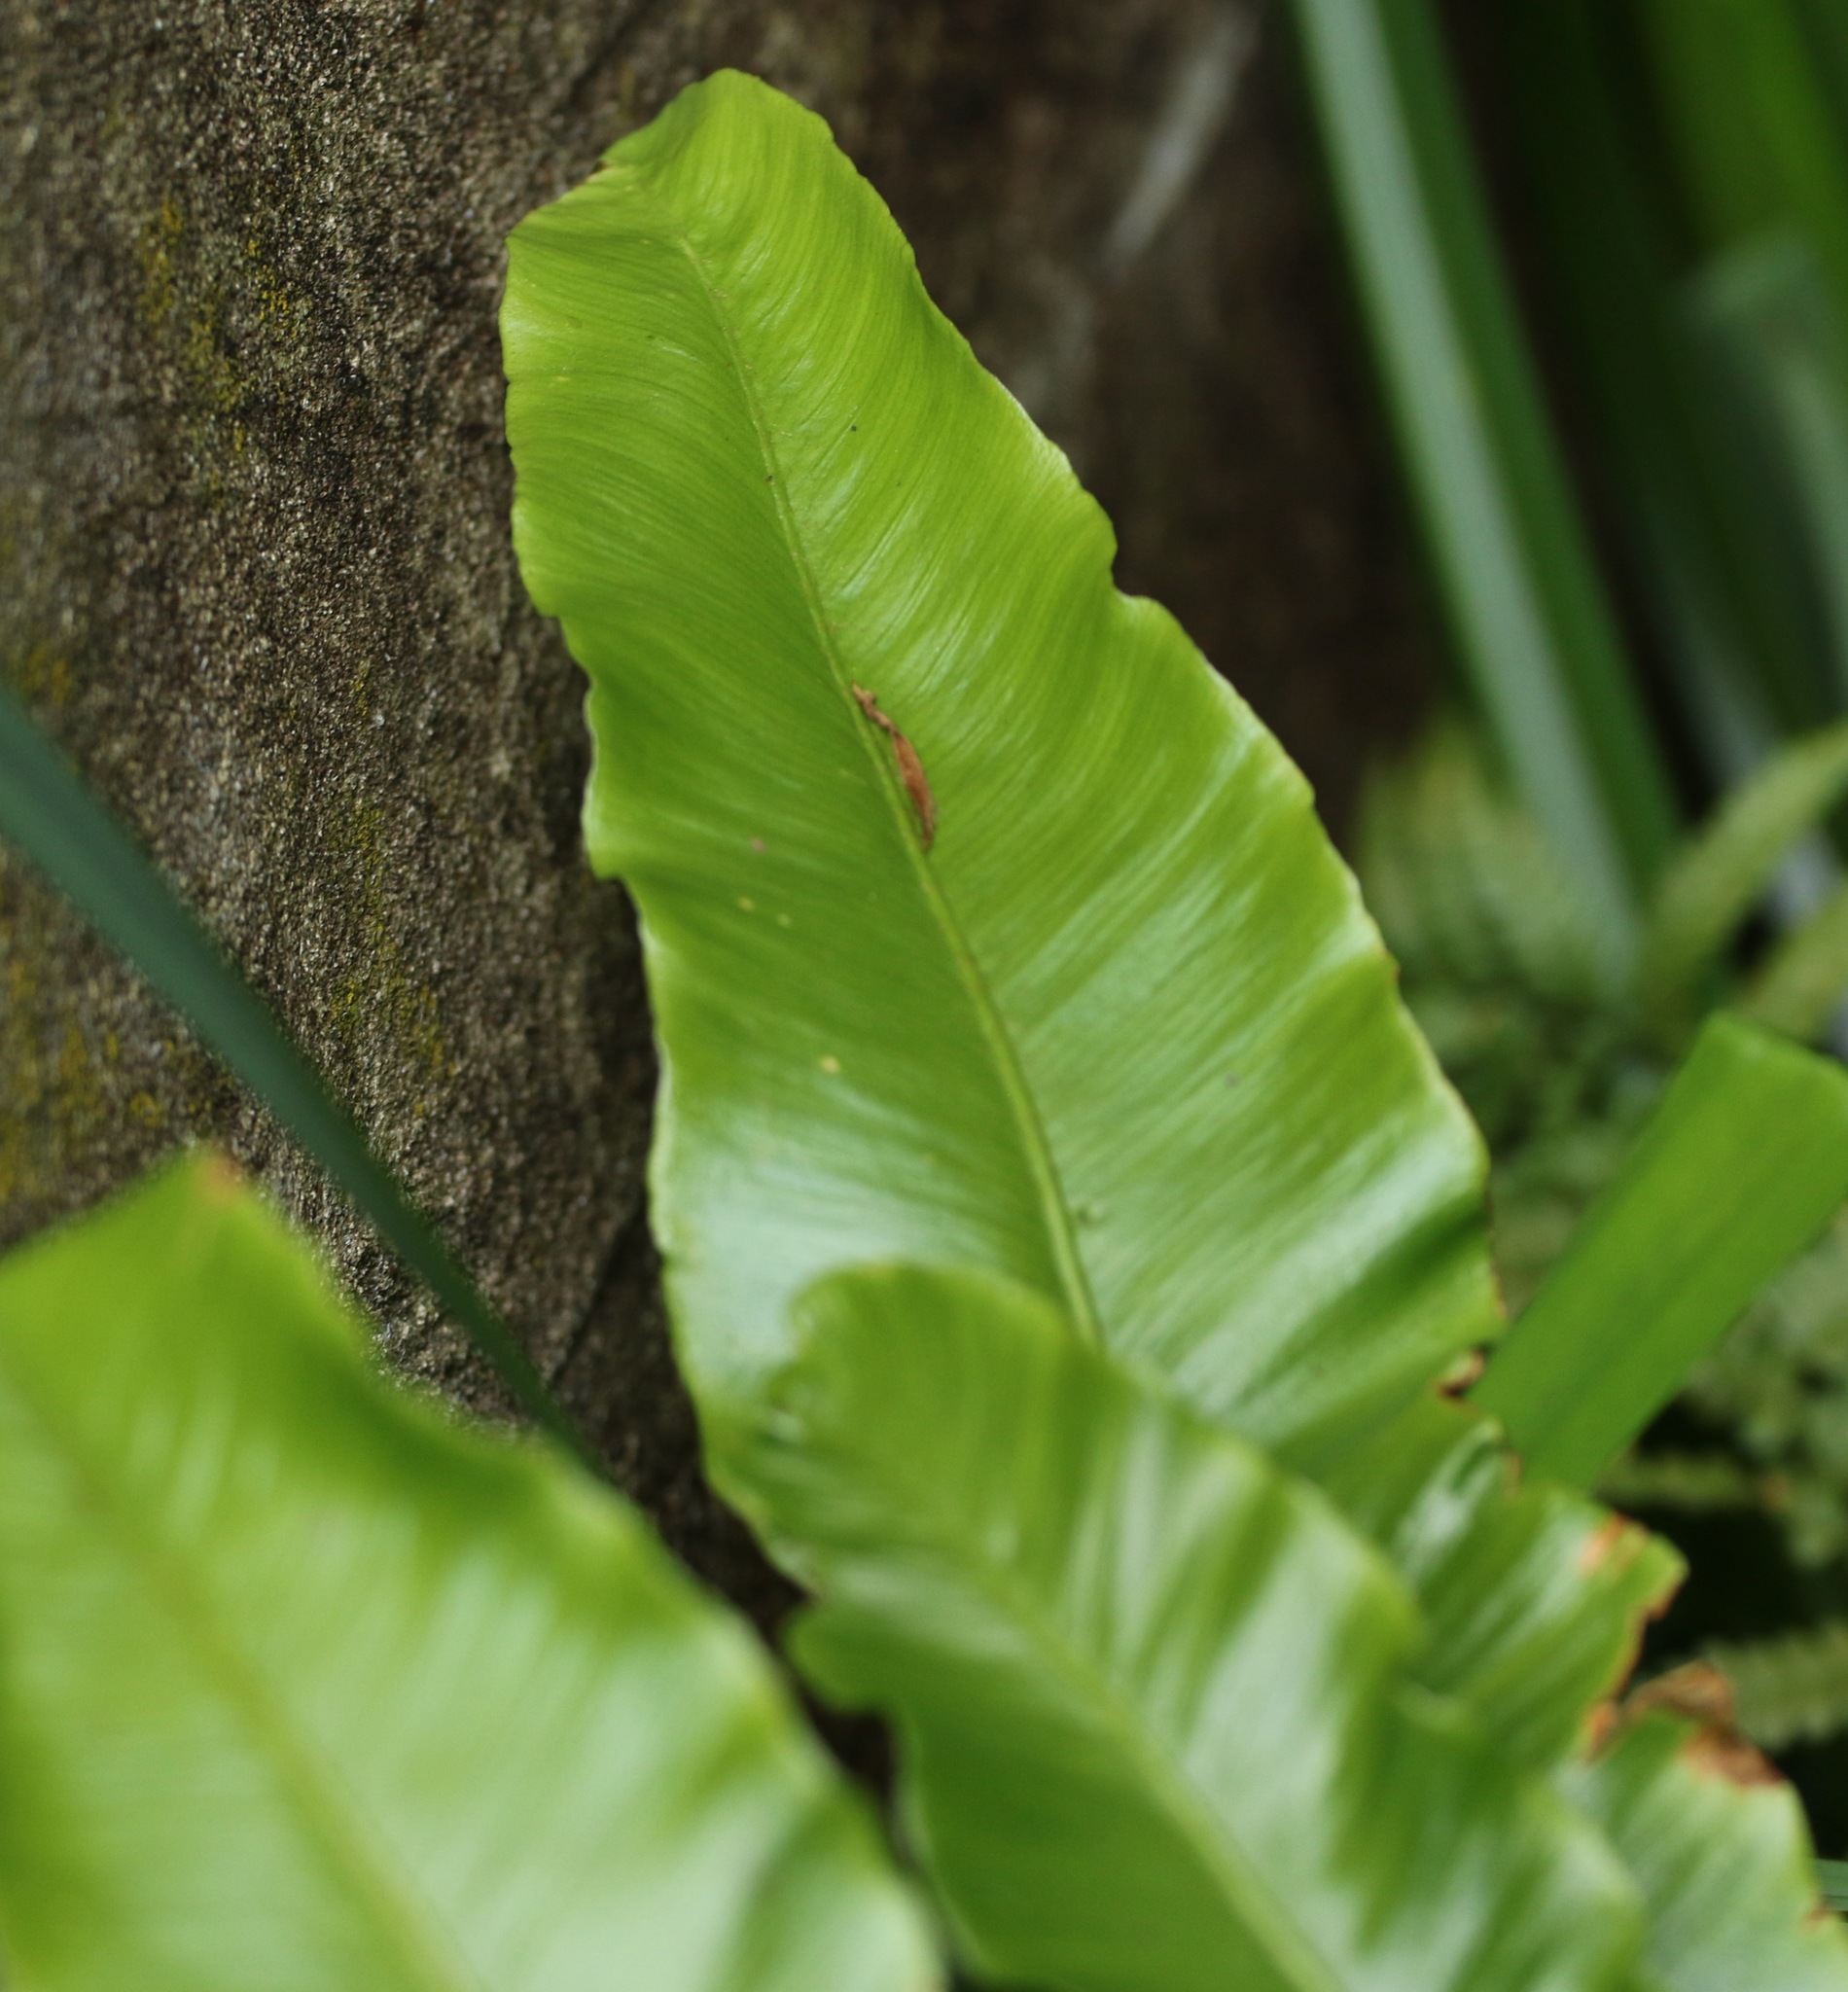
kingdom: Plantae
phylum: Tracheophyta
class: Polypodiopsida
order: Polypodiales
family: Aspleniaceae
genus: Asplenium
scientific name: Asplenium scolopendrium
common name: Hart's-tongue fern
